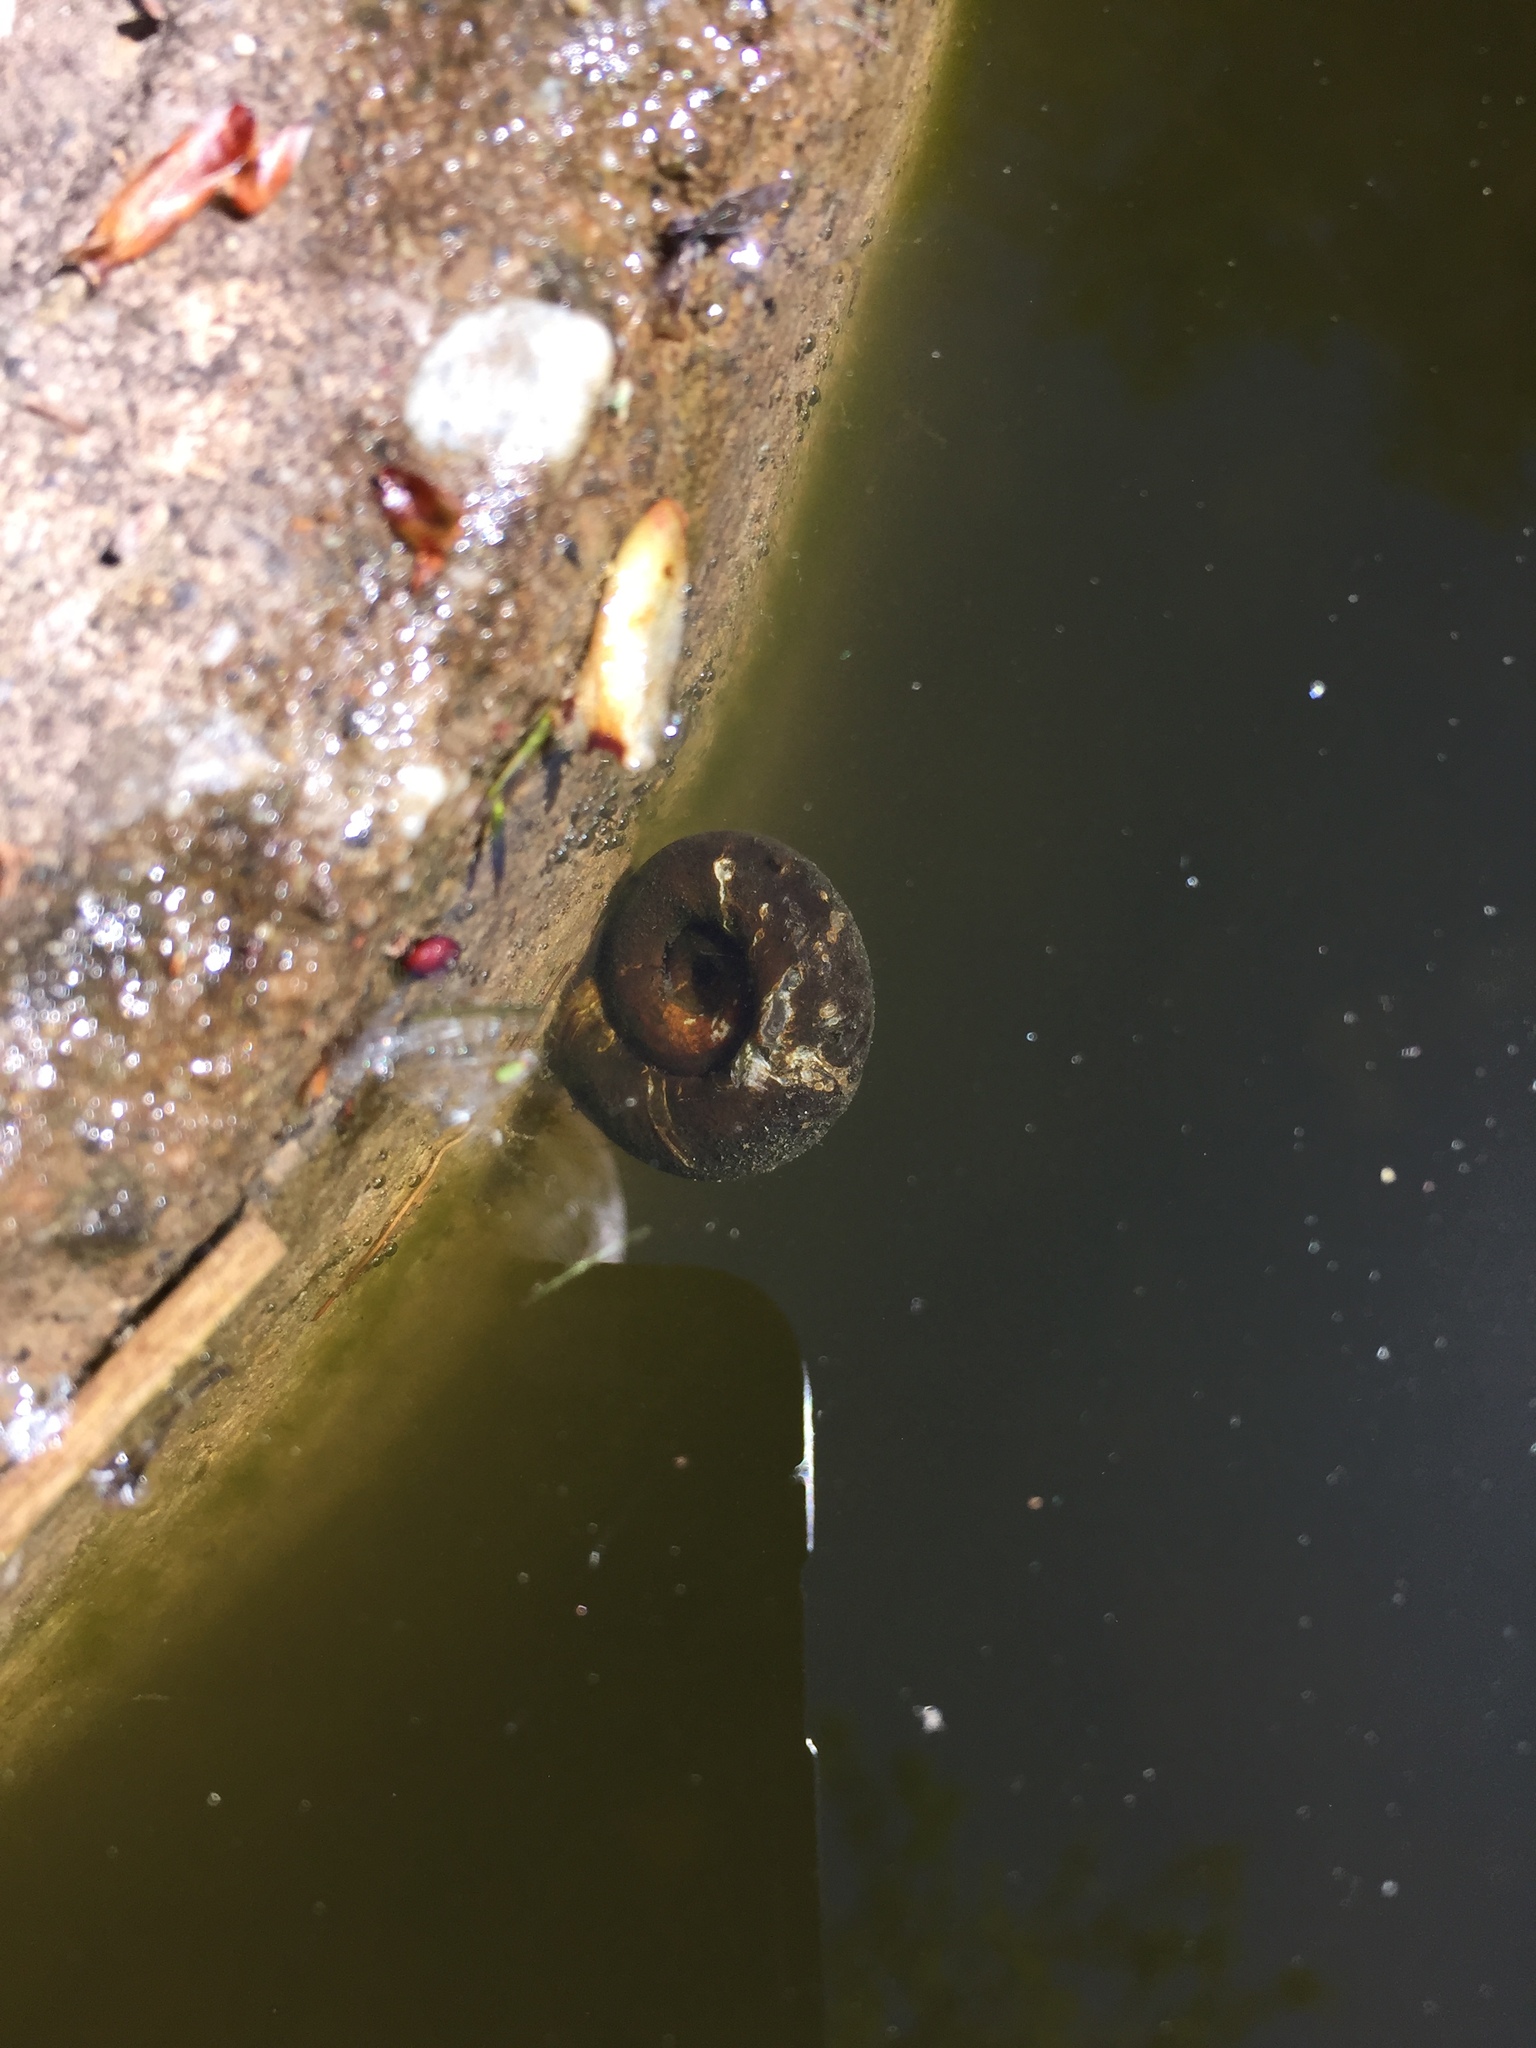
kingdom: Animalia
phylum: Mollusca
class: Gastropoda
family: Planorbidae
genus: Planorbarius
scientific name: Planorbarius corneus
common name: Great ramshorn
